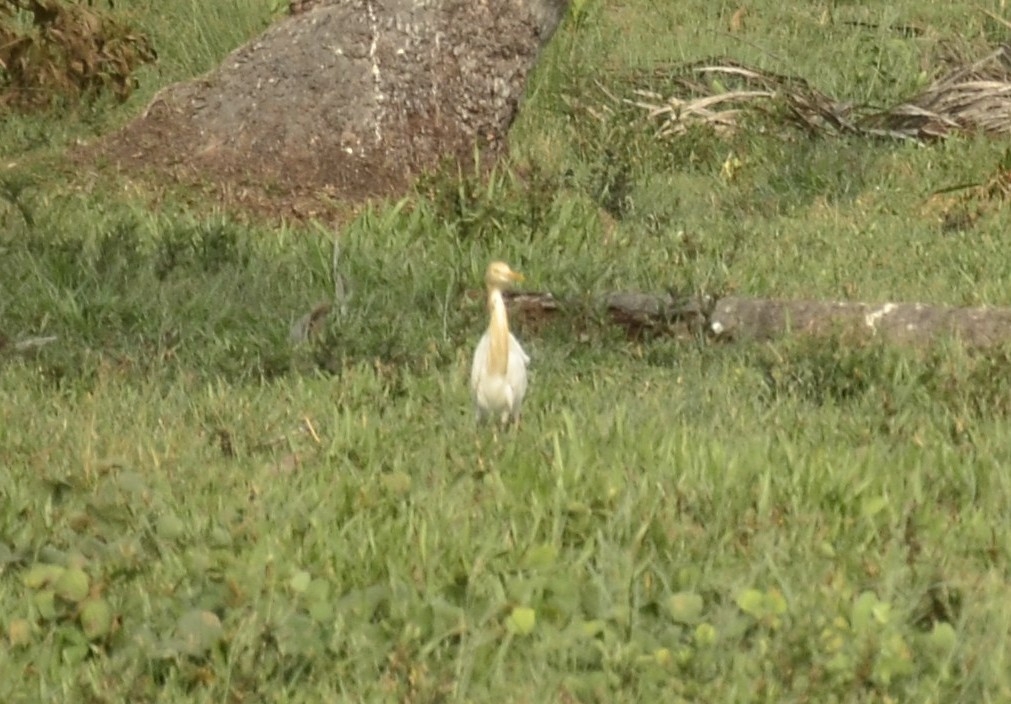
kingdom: Animalia
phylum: Chordata
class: Aves
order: Pelecaniformes
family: Ardeidae
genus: Bubulcus
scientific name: Bubulcus coromandus
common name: Eastern cattle egret
